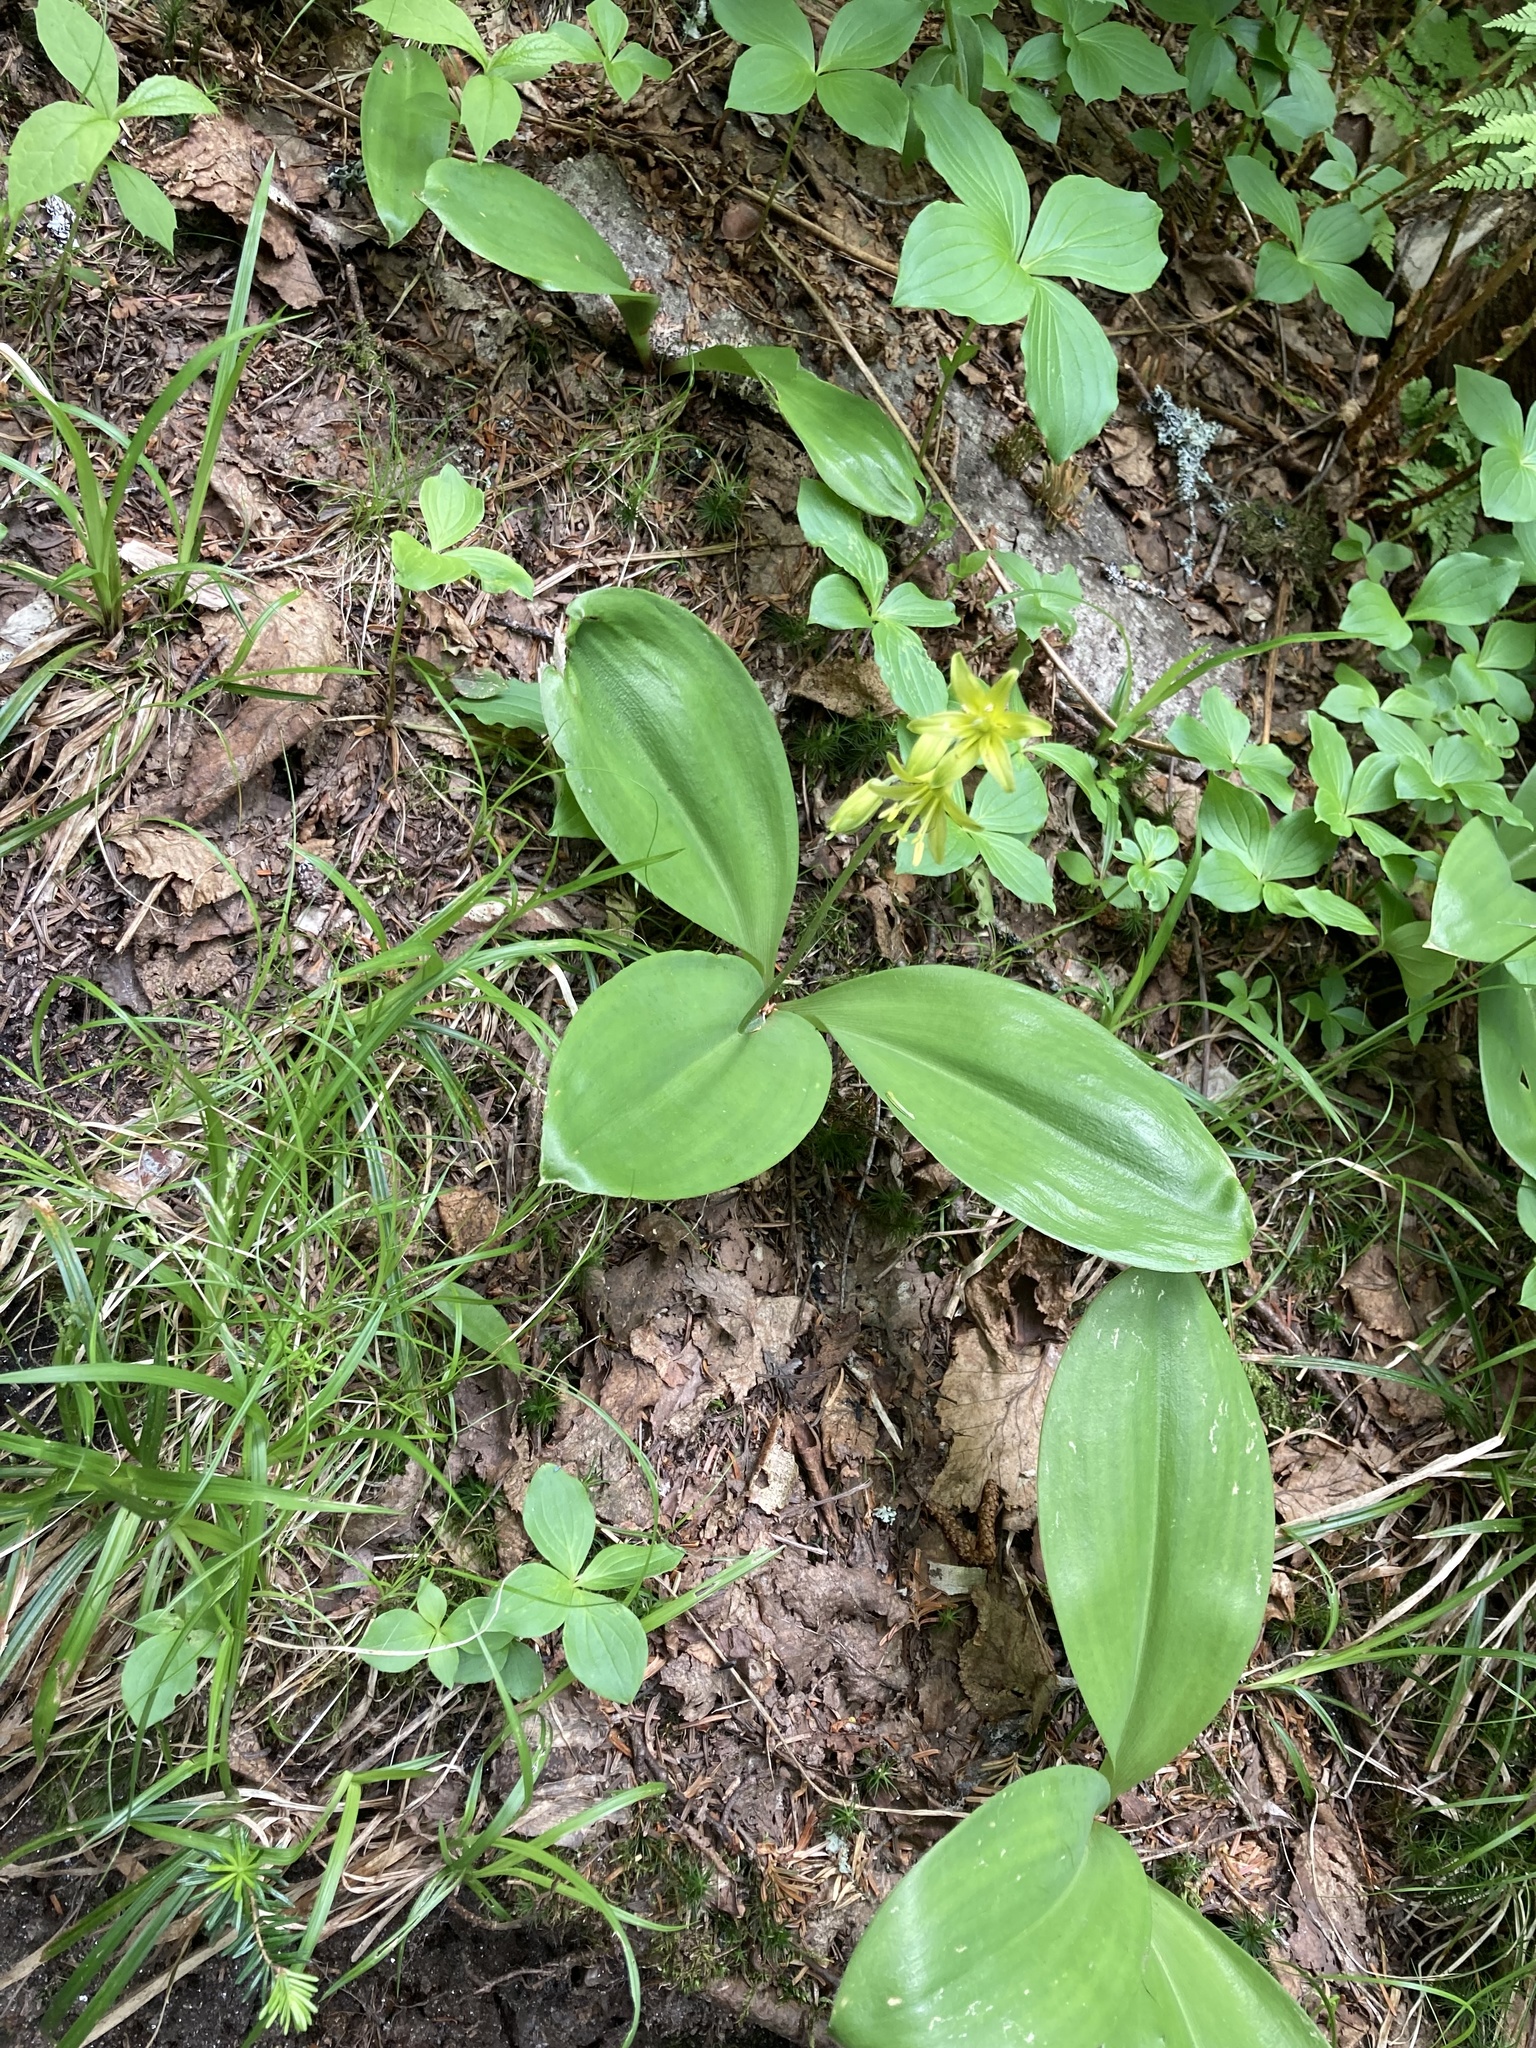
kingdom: Plantae
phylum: Tracheophyta
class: Liliopsida
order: Liliales
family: Liliaceae
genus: Clintonia
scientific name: Clintonia borealis
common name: Yellow clintonia
